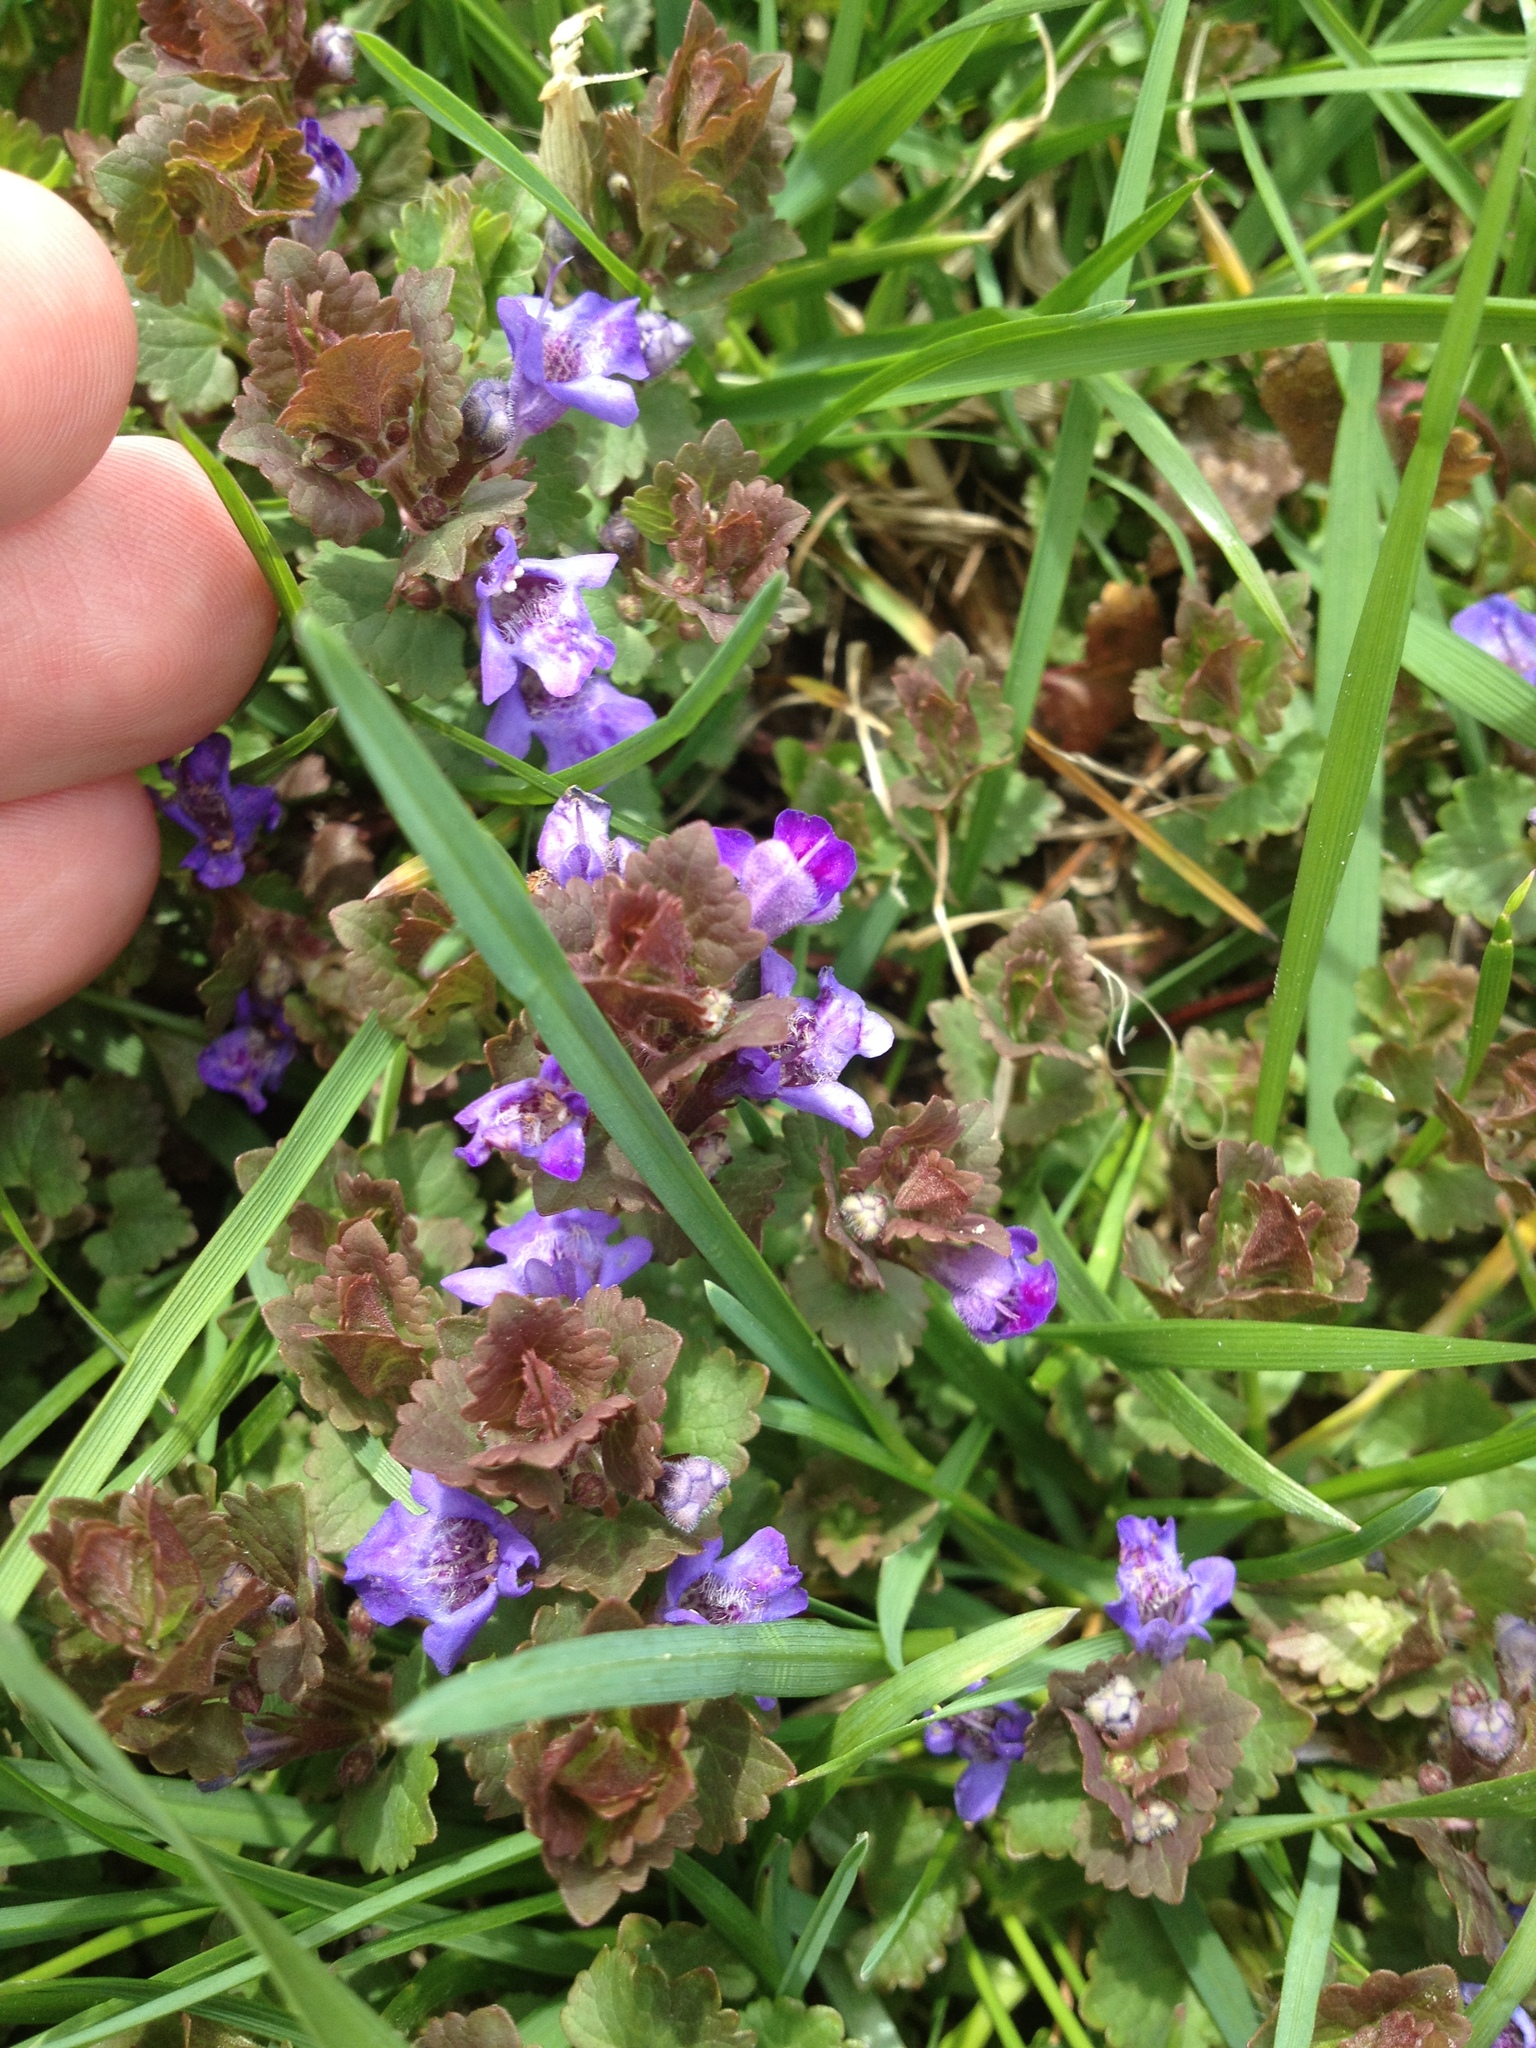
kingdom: Plantae
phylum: Tracheophyta
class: Magnoliopsida
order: Lamiales
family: Lamiaceae
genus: Glechoma
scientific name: Glechoma hederacea
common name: Ground ivy
